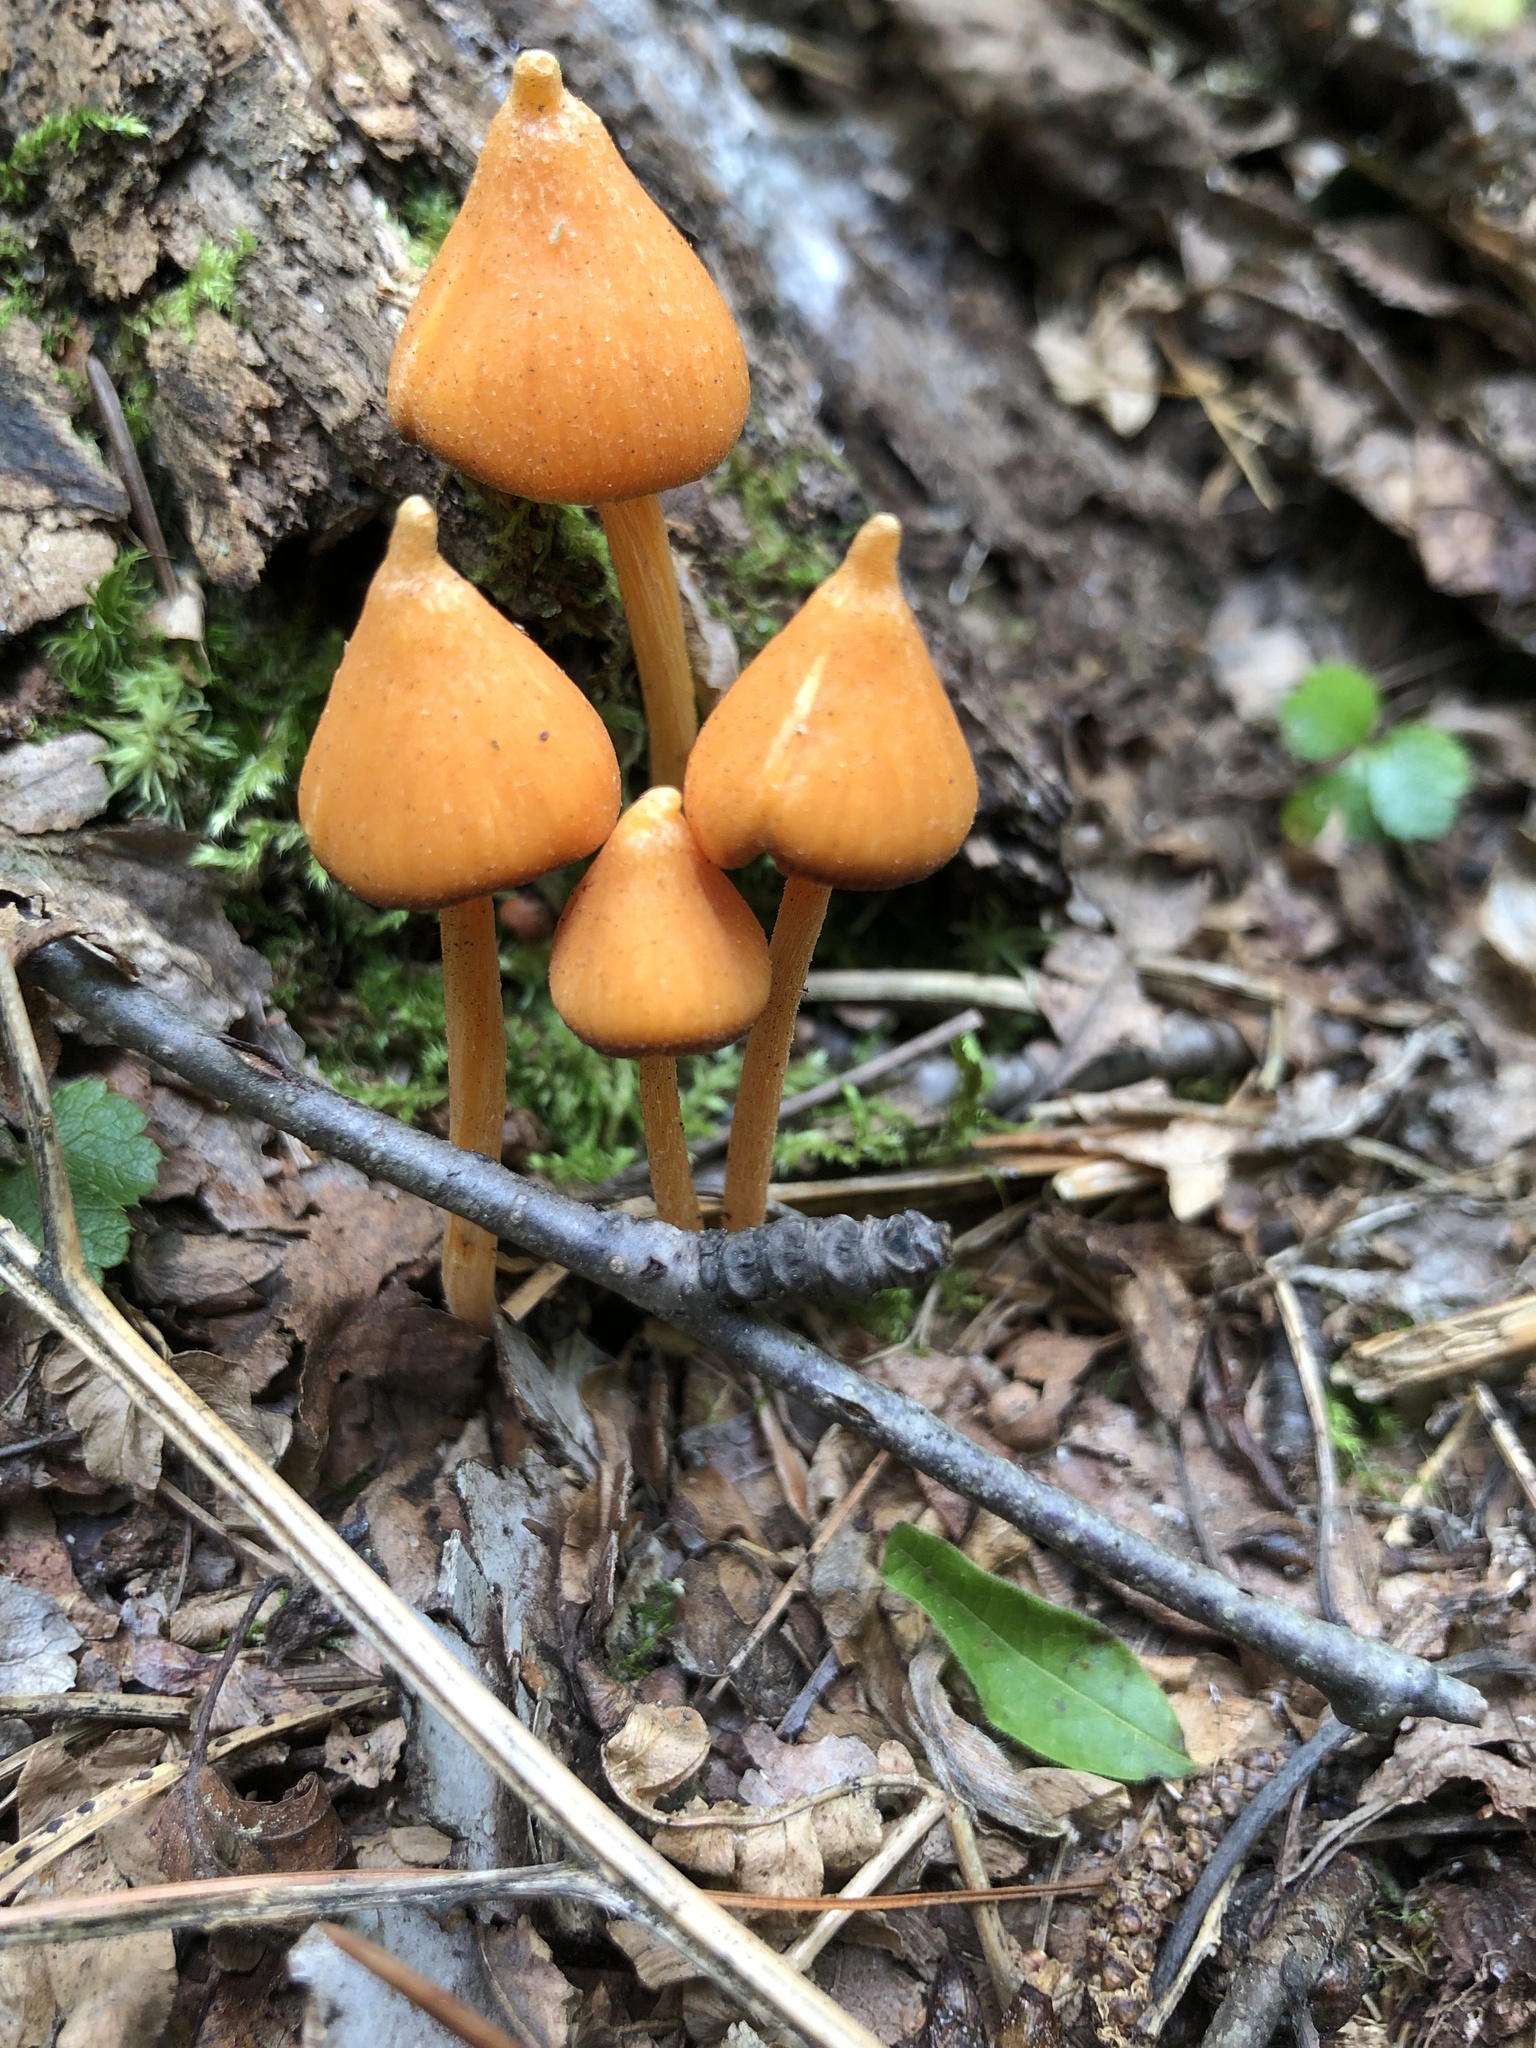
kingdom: Fungi
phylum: Basidiomycota
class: Agaricomycetes
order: Agaricales
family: Entolomataceae
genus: Entoloma
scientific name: Entoloma quadratum
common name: Salmon pinkgill
